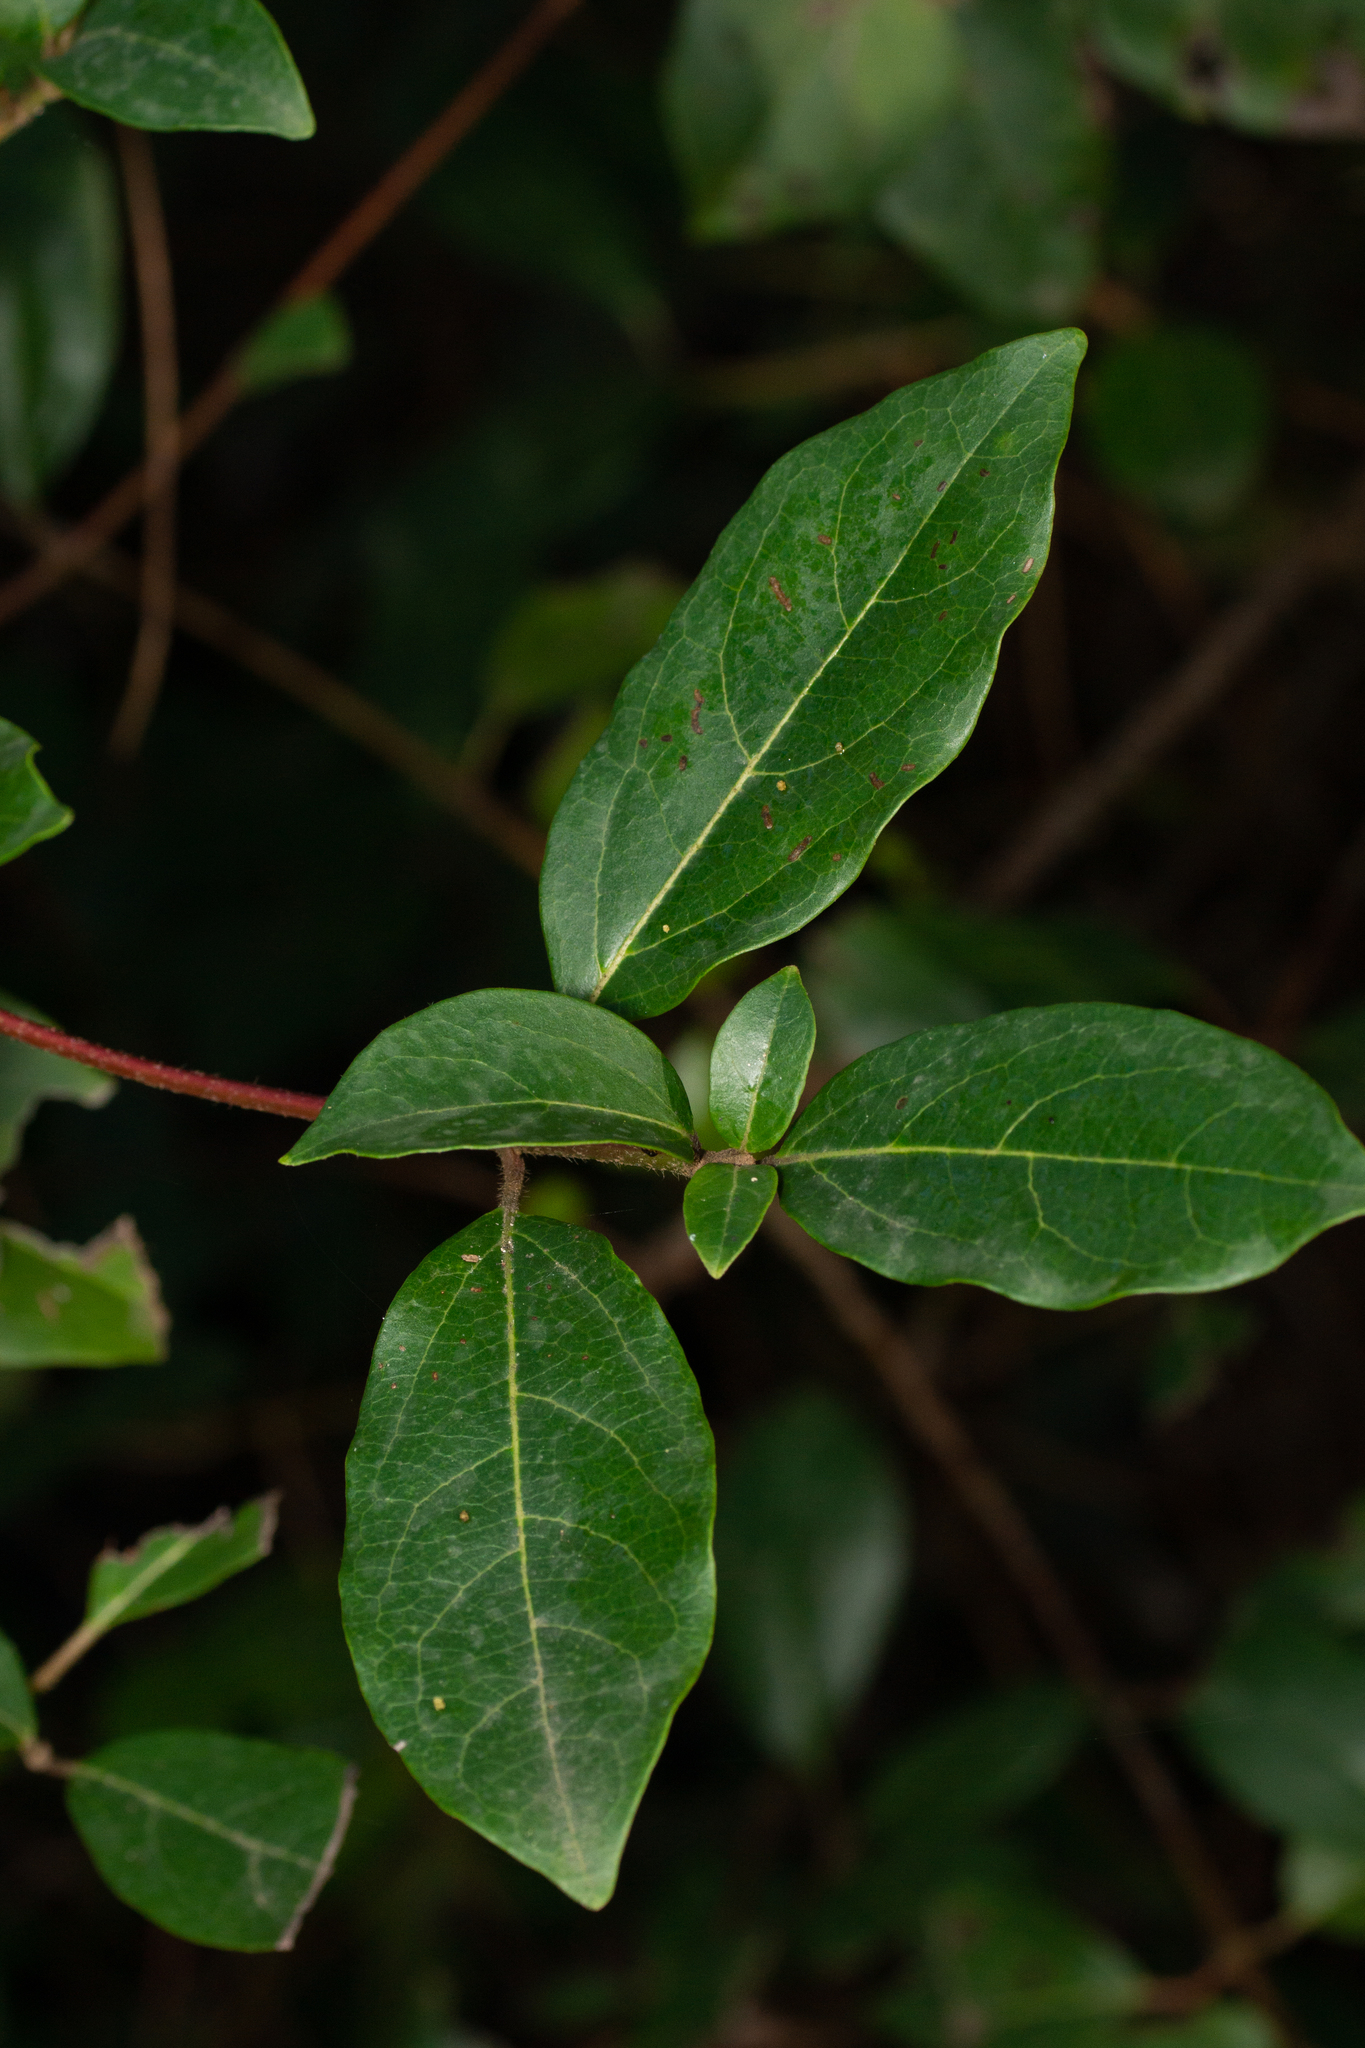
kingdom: Plantae
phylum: Tracheophyta
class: Magnoliopsida
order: Dipsacales
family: Viburnaceae
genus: Viburnum
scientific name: Viburnum tinus
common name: Laurustinus
